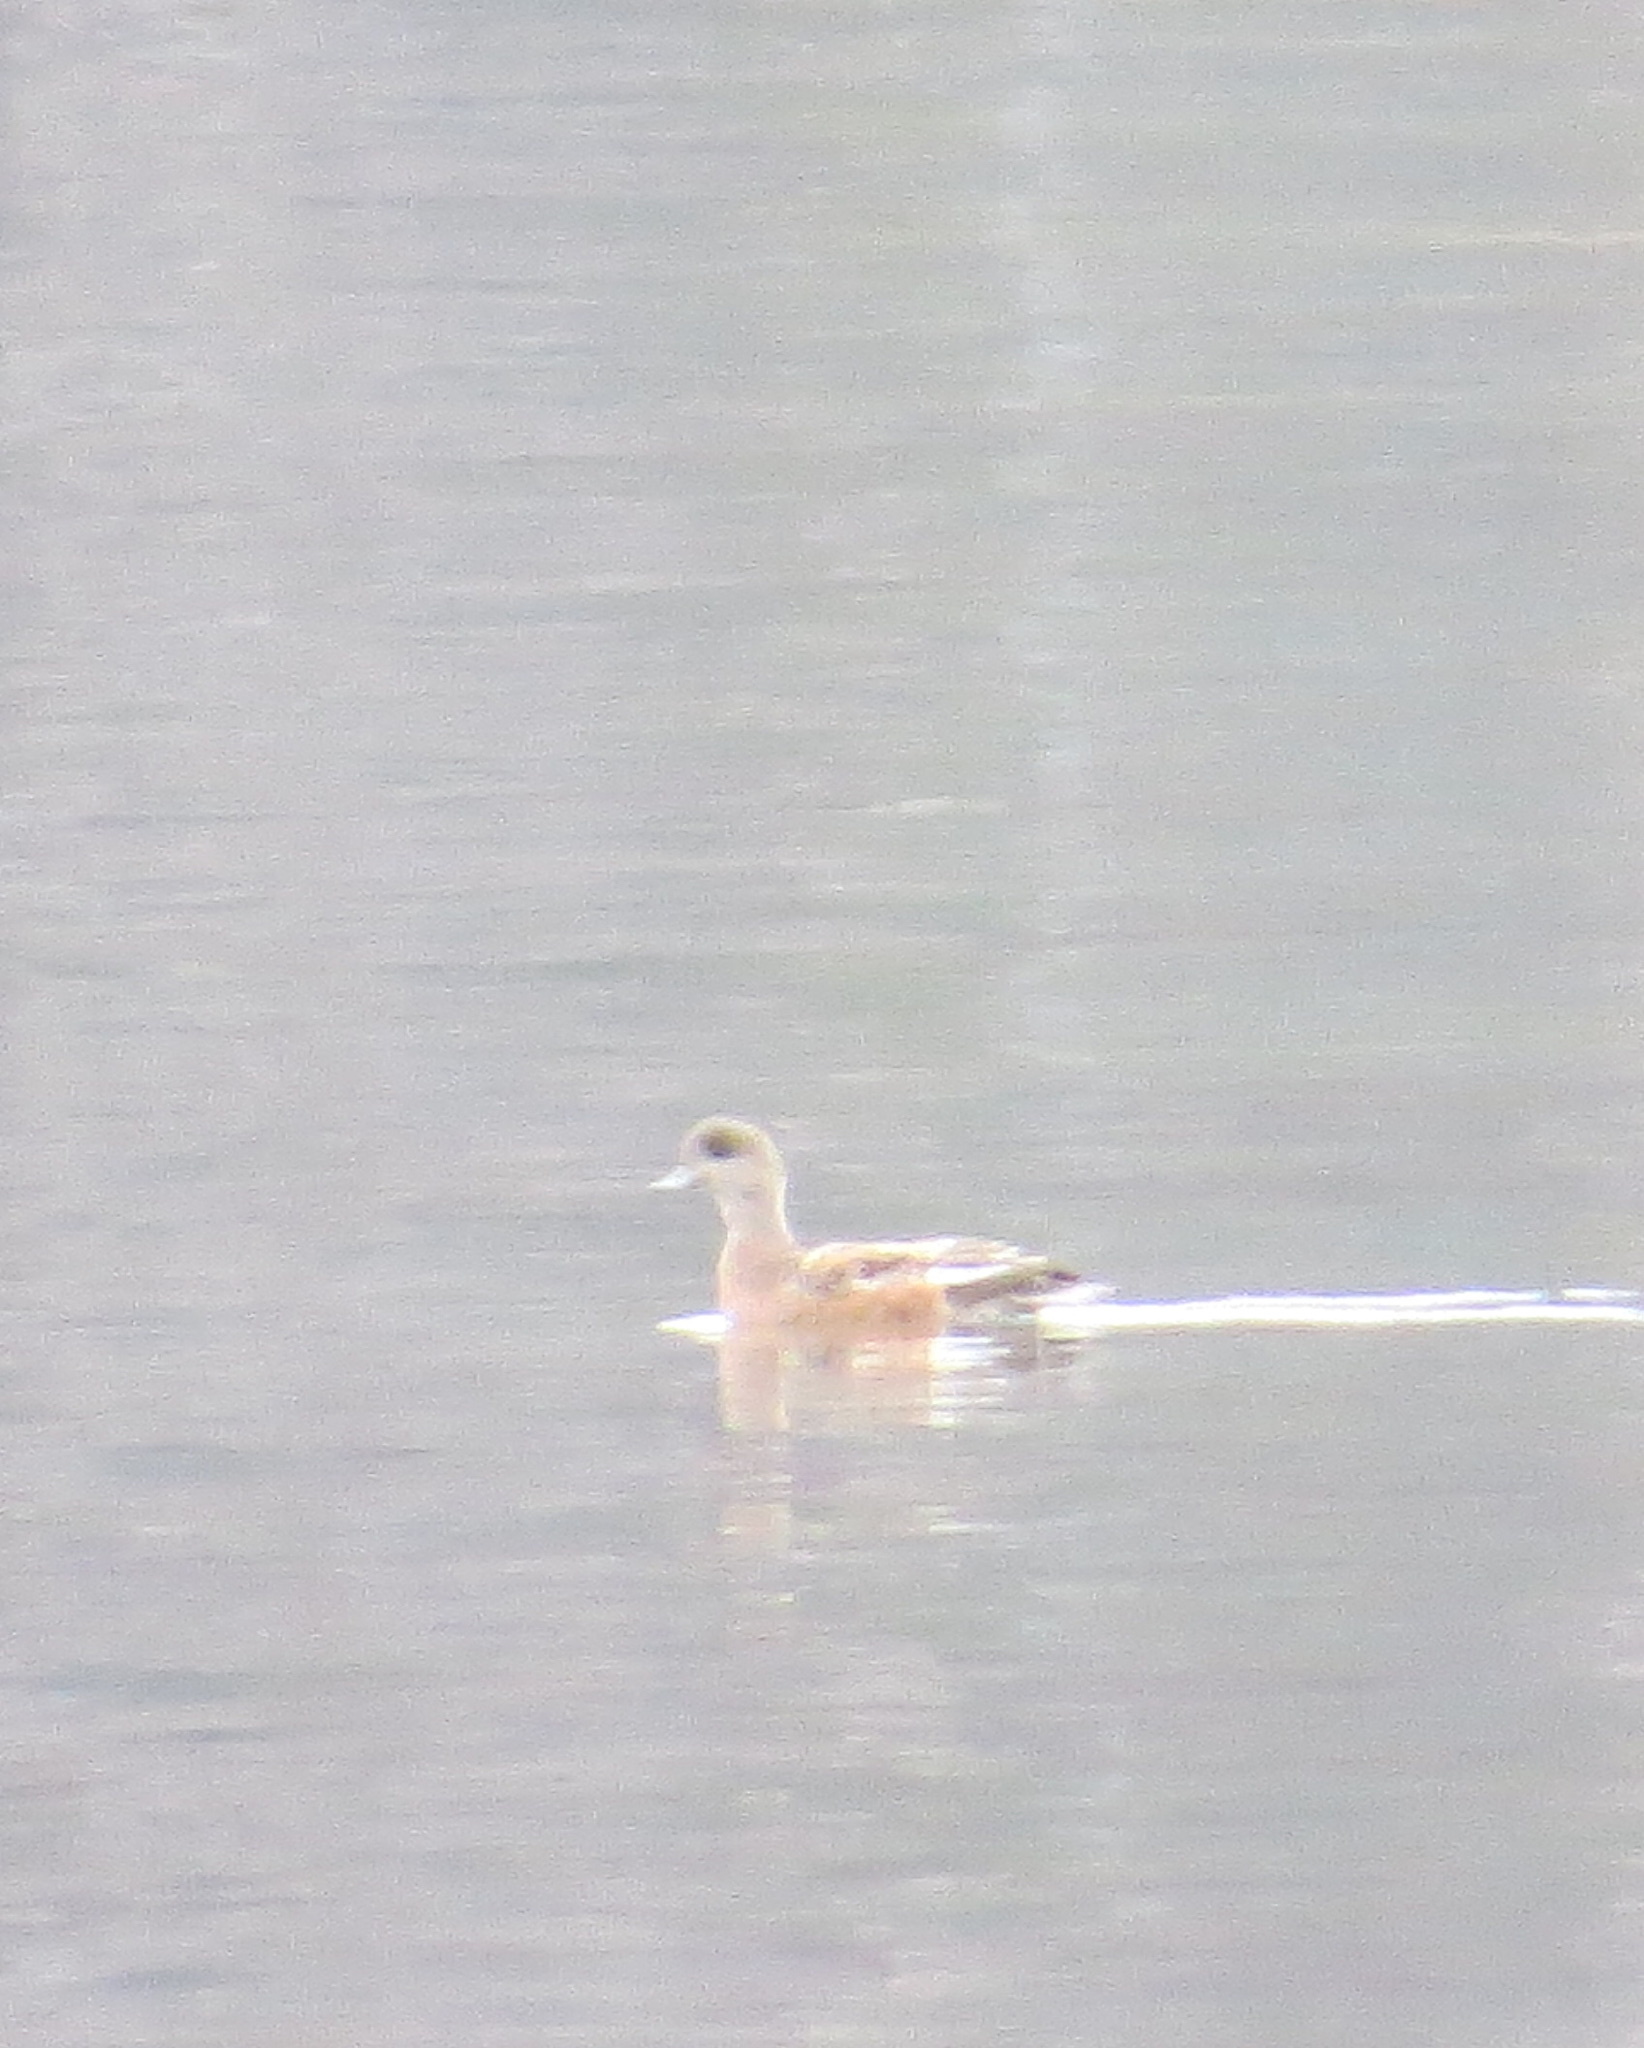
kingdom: Animalia
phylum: Chordata
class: Aves
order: Anseriformes
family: Anatidae
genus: Mareca
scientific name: Mareca americana
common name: American wigeon
